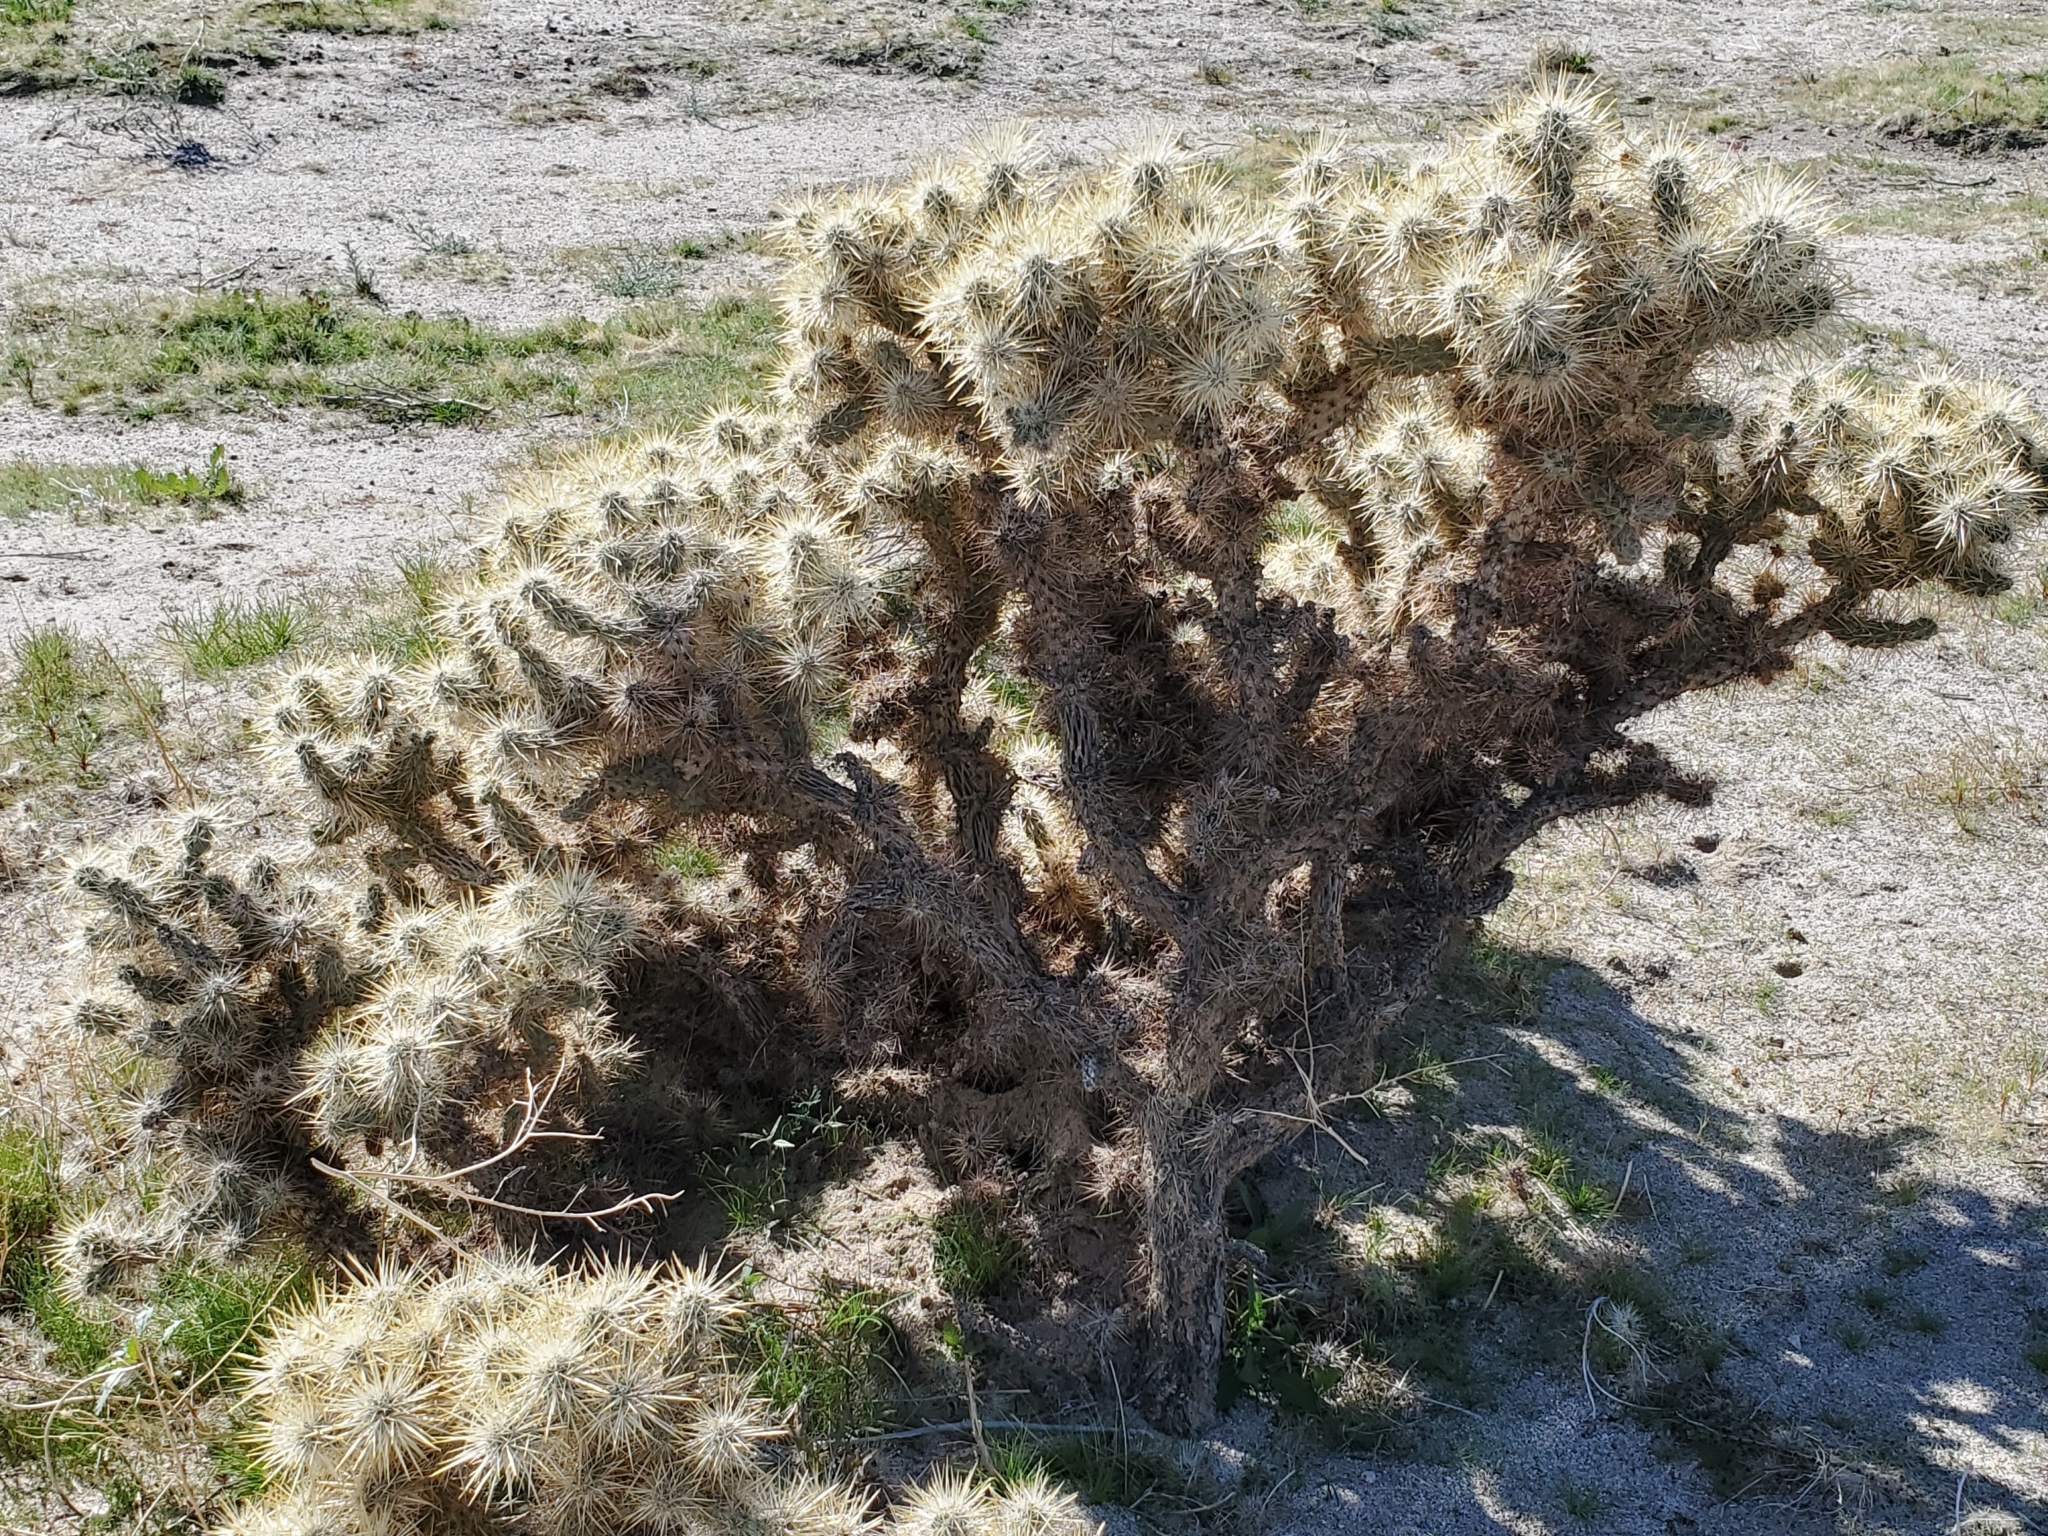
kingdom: Plantae
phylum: Tracheophyta
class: Magnoliopsida
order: Caryophyllales
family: Cactaceae
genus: Cylindropuntia
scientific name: Cylindropuntia echinocarpa
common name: Ground cholla
